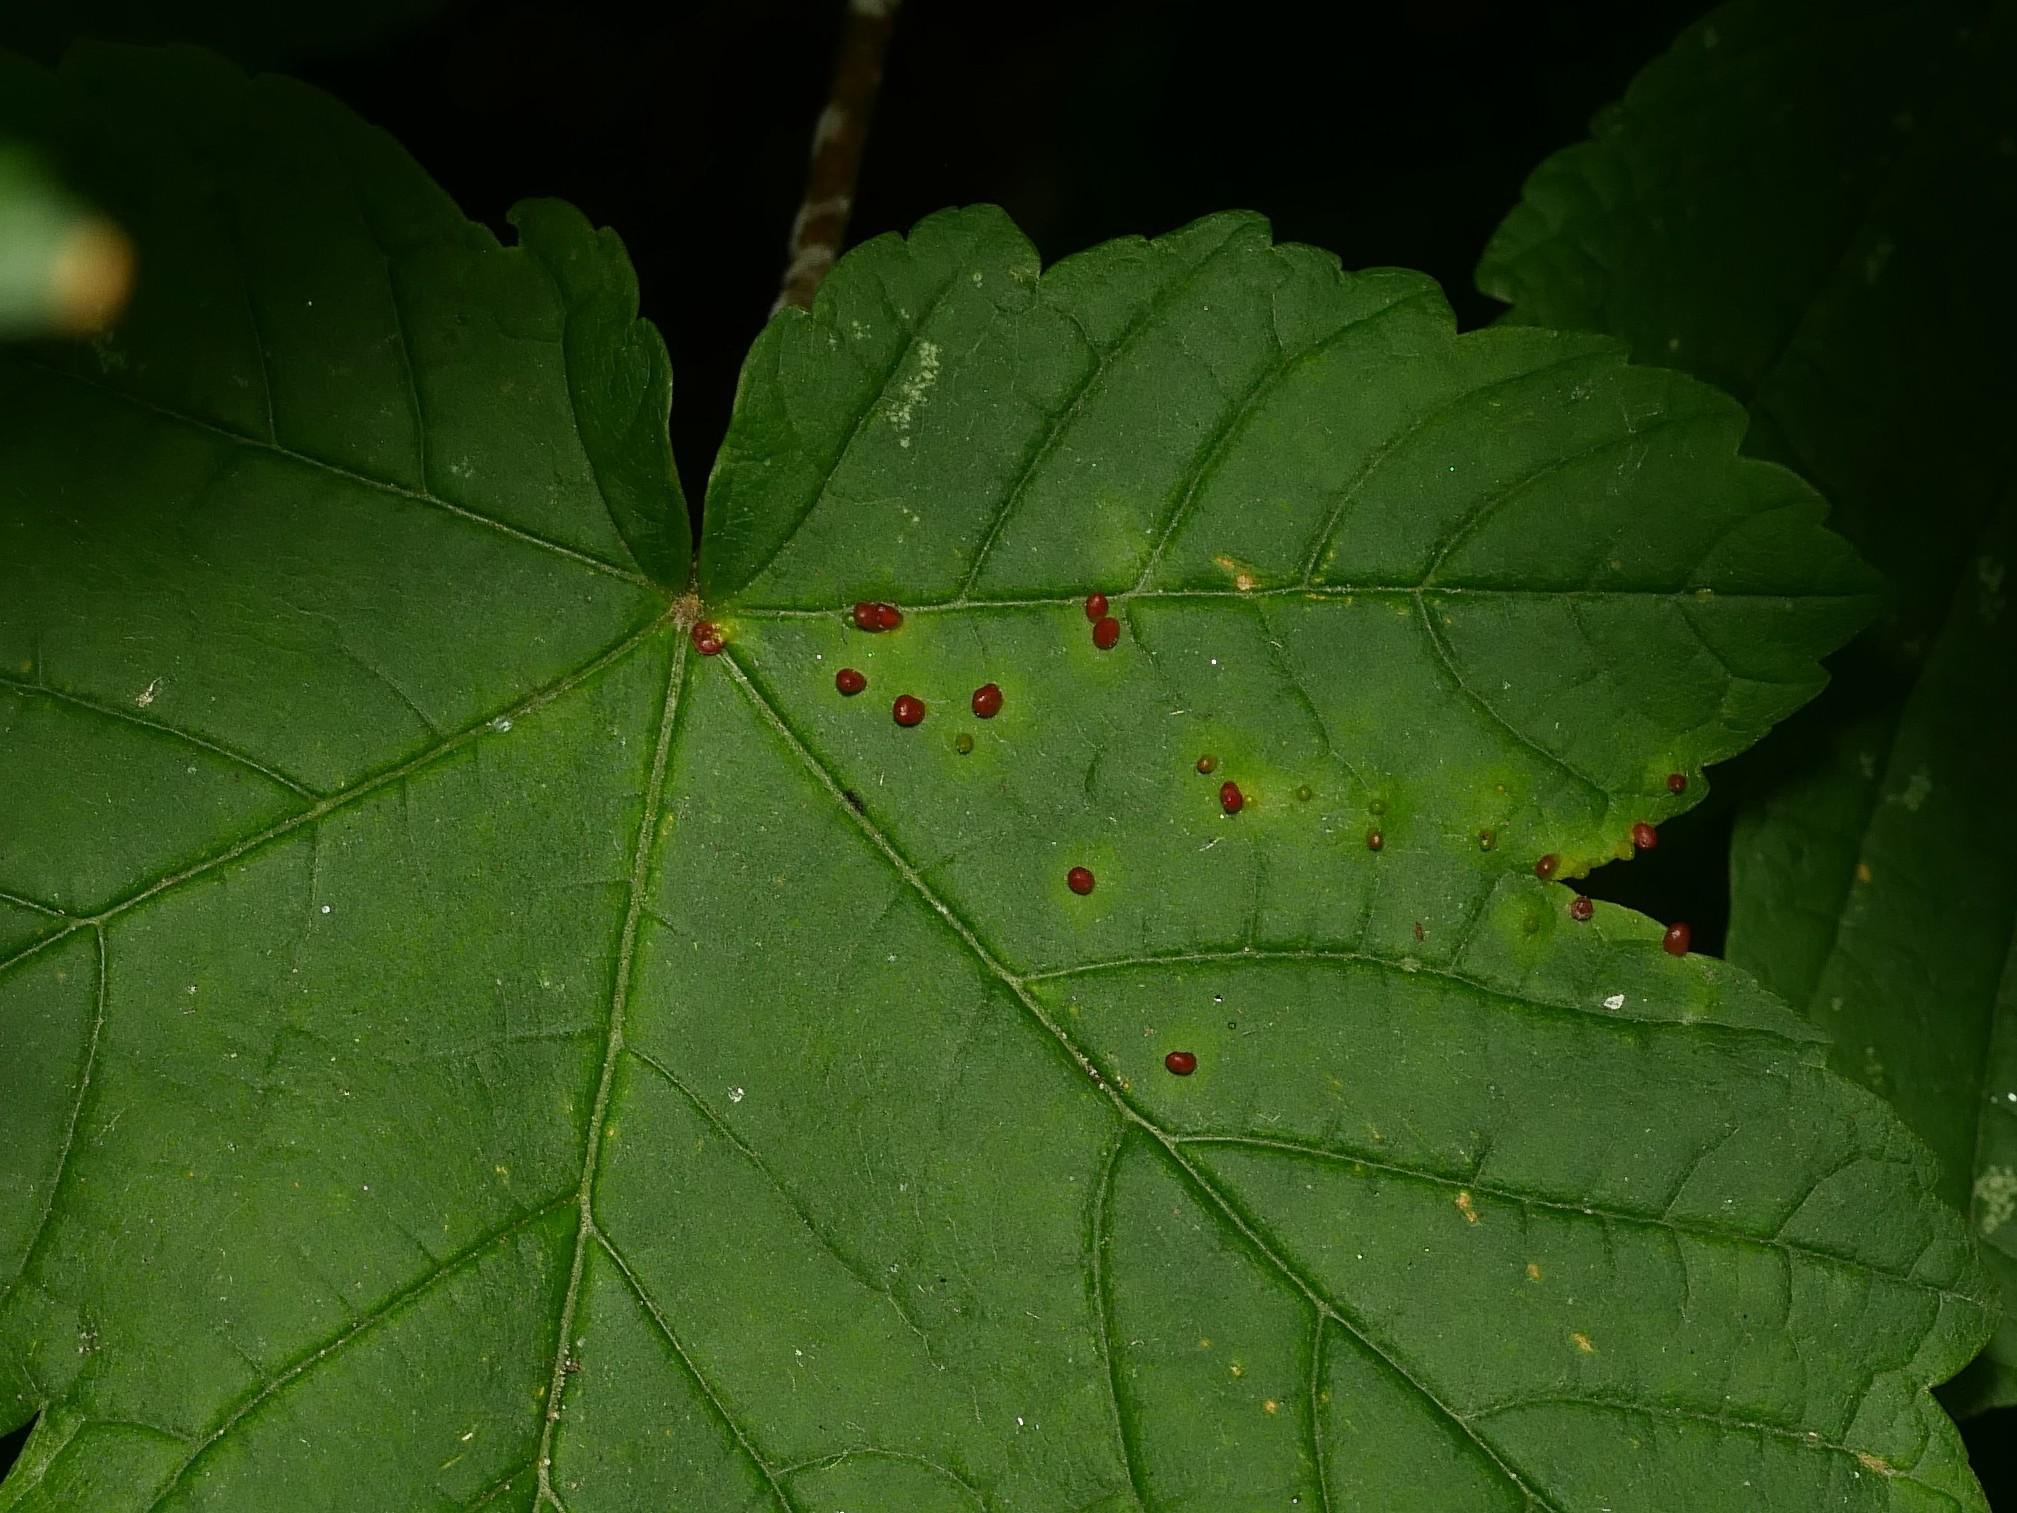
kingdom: Animalia
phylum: Arthropoda
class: Arachnida
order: Trombidiformes
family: Eriophyidae
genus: Aceria
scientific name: Aceria cephaloneus
